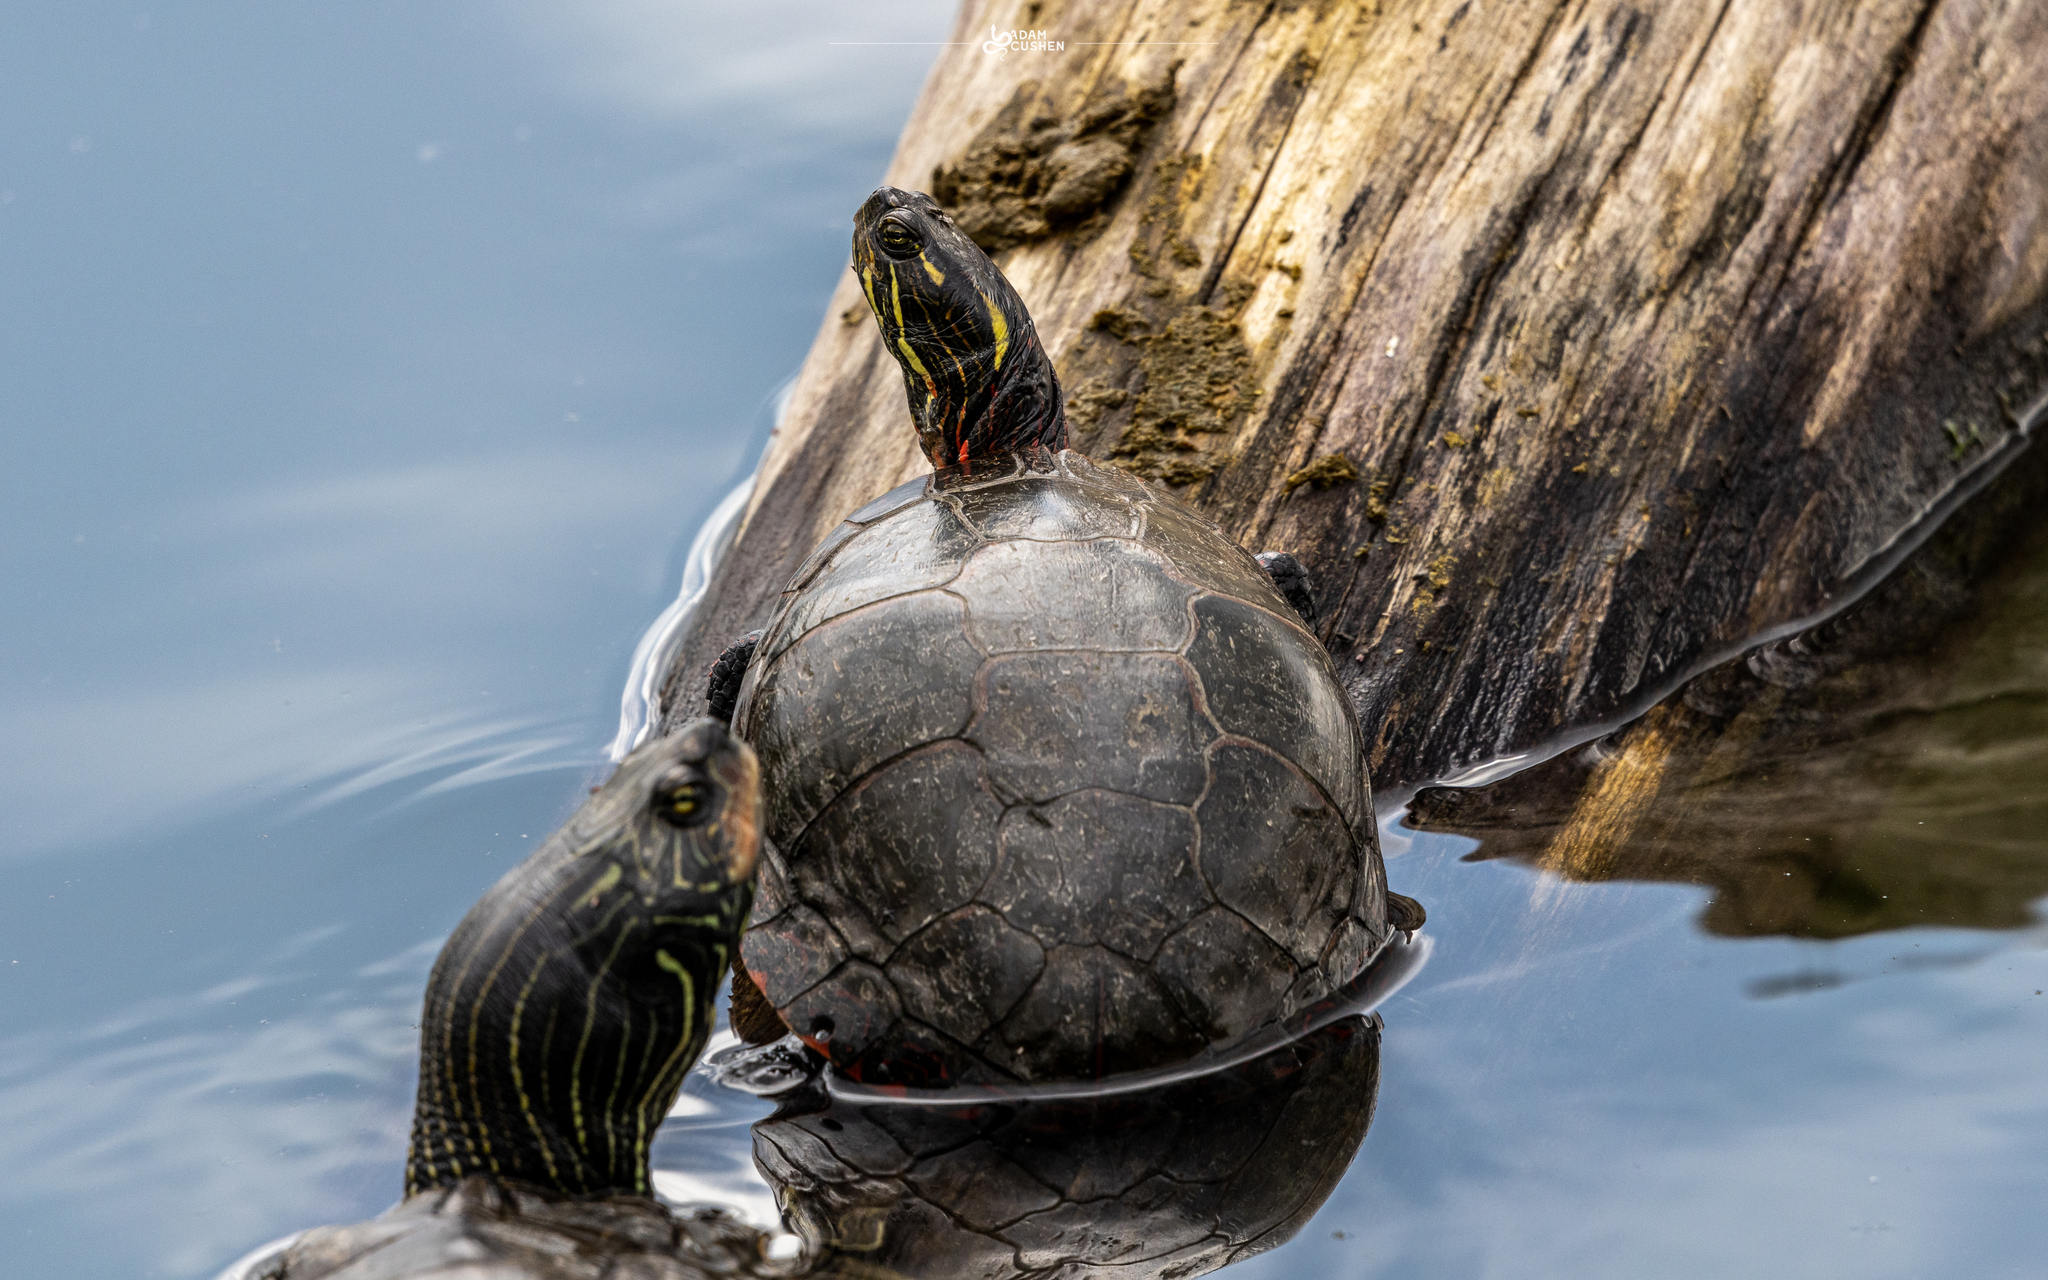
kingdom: Animalia
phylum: Chordata
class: Testudines
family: Emydidae
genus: Chrysemys
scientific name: Chrysemys picta
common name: Painted turtle
